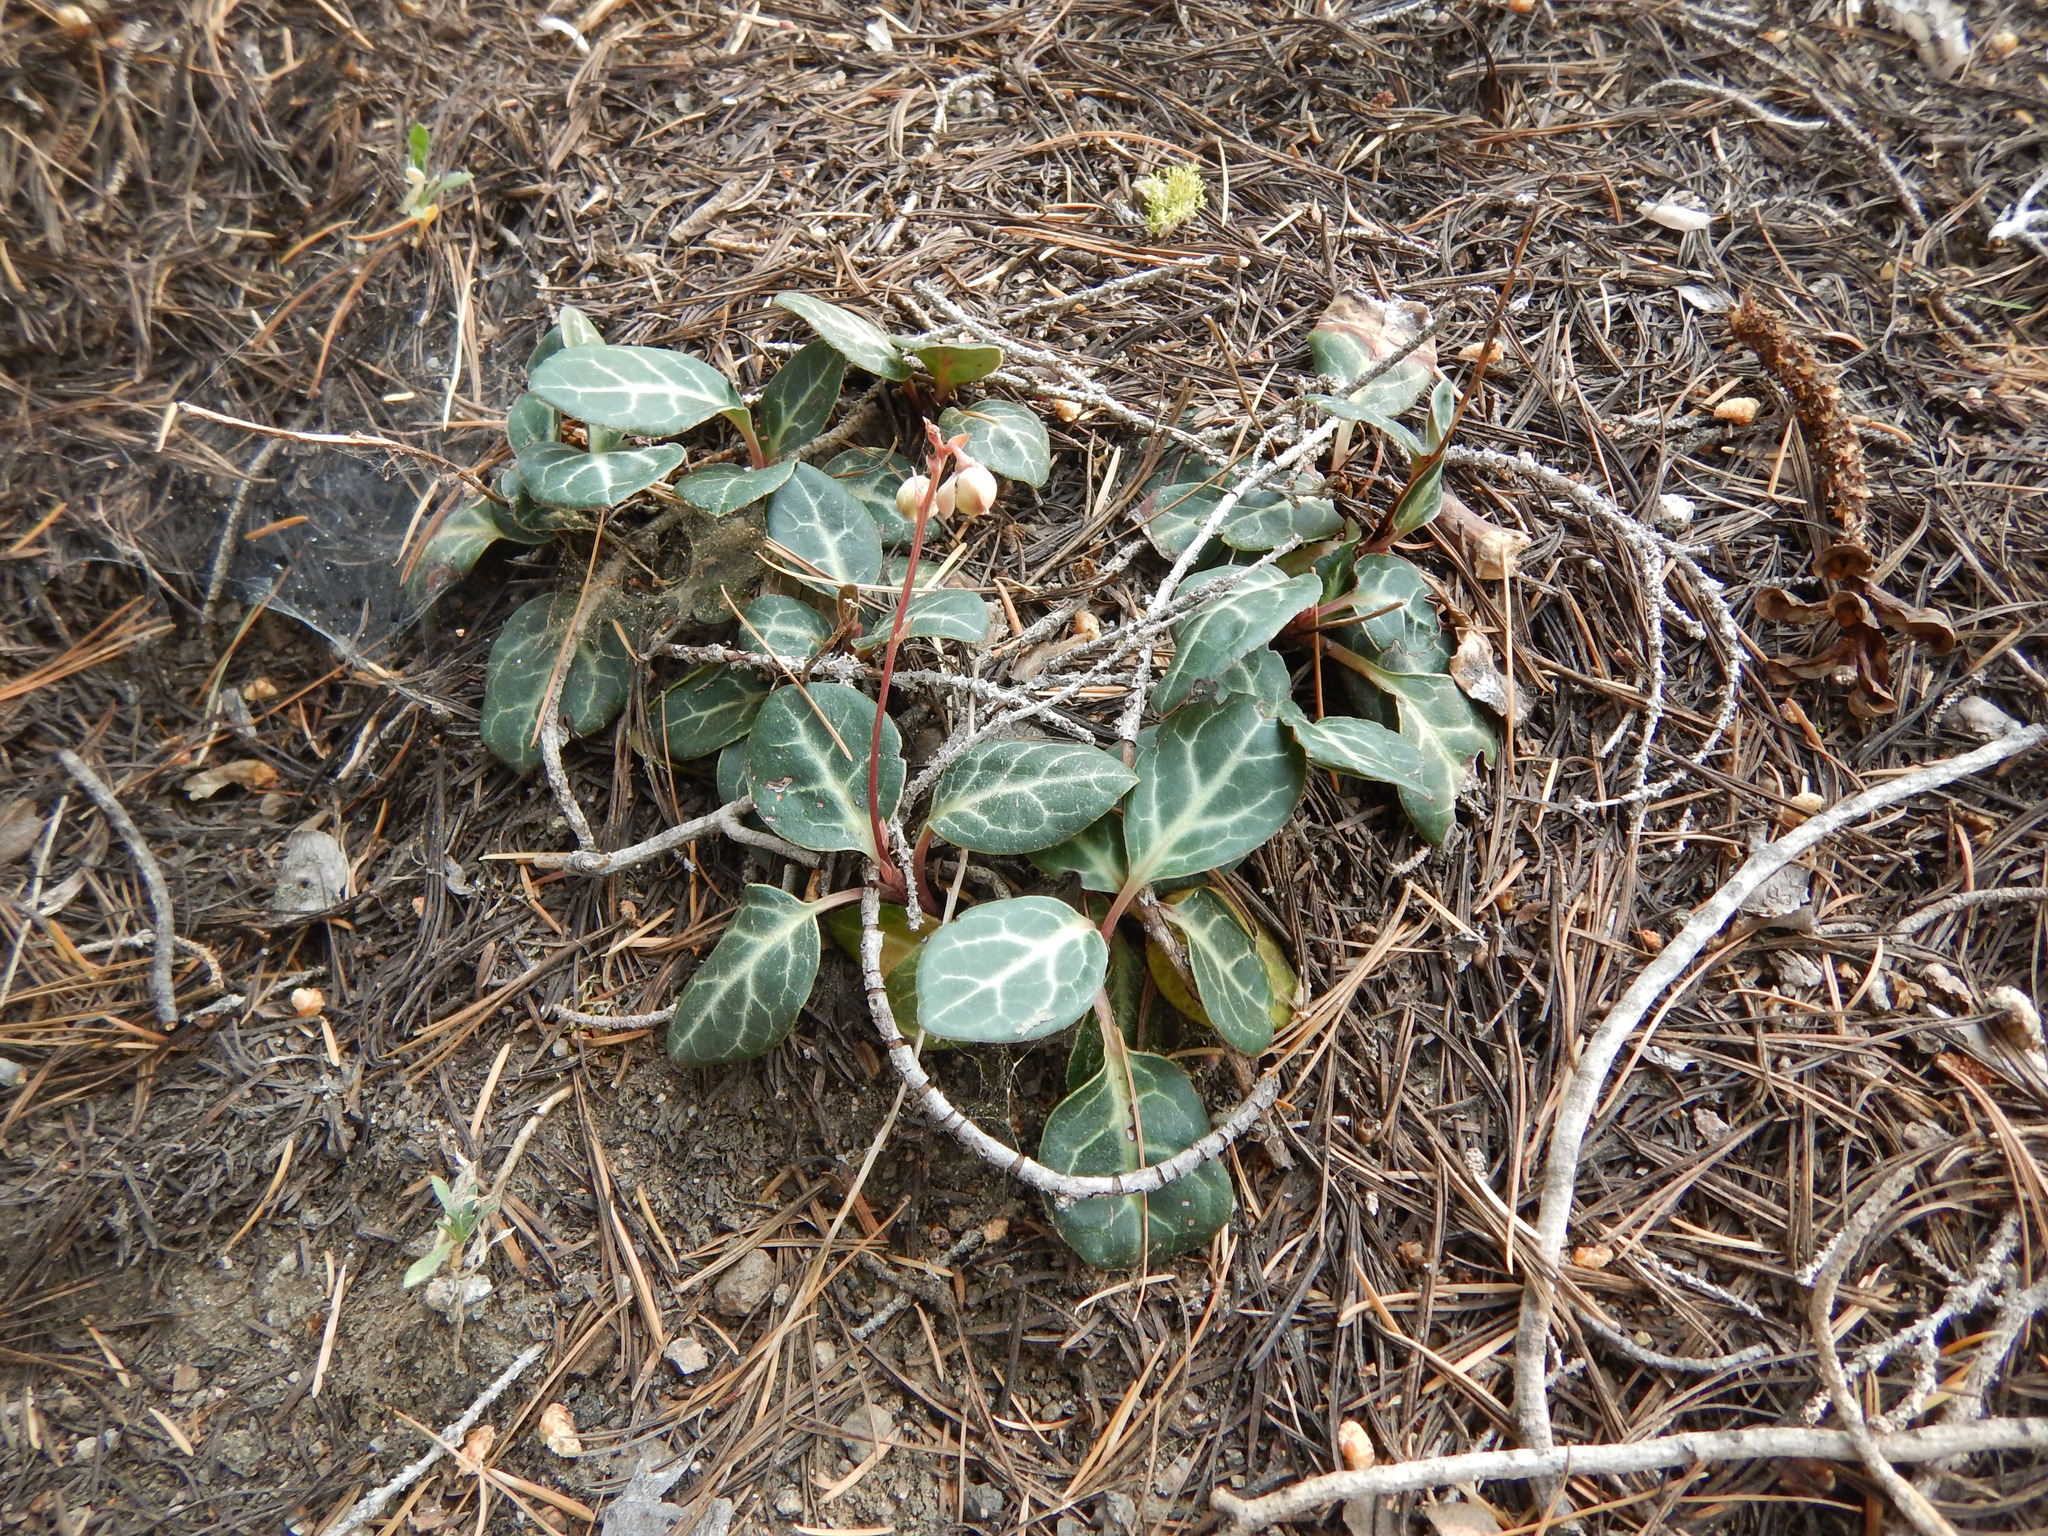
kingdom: Plantae
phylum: Tracheophyta
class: Magnoliopsida
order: Ericales
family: Ericaceae
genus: Pyrola
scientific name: Pyrola picta
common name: White-vein wintergreen
